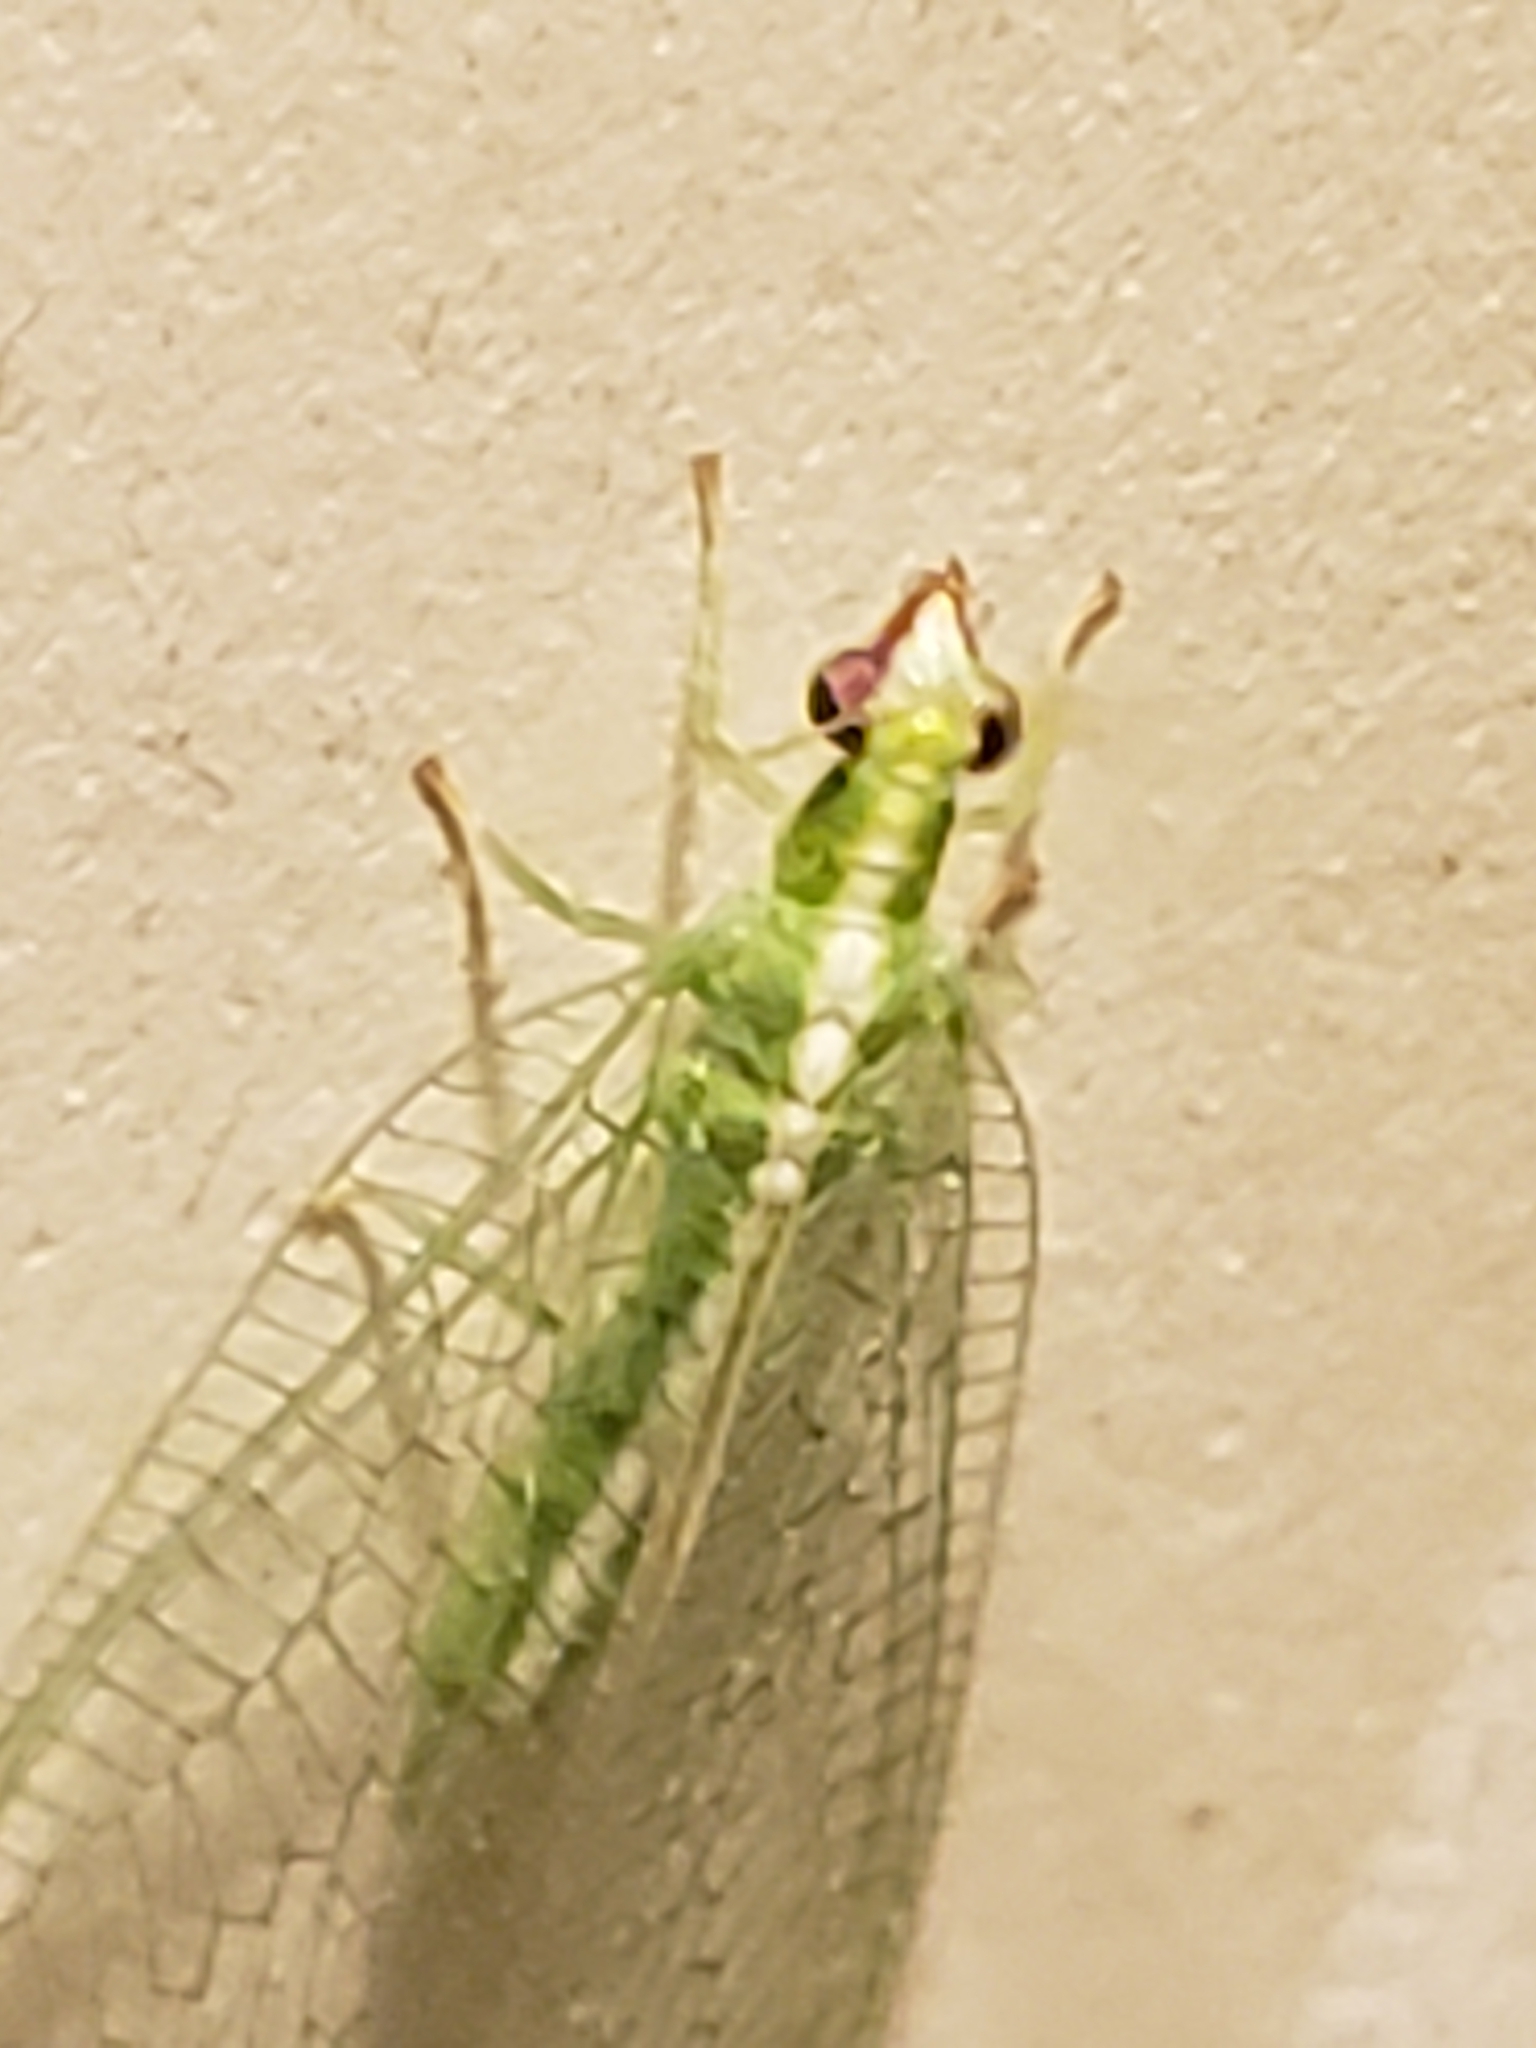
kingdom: Animalia
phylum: Arthropoda
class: Insecta
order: Neuroptera
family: Chrysopidae
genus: Chrysoperla
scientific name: Chrysoperla rufilabris
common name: Red-lipped green lacewing
